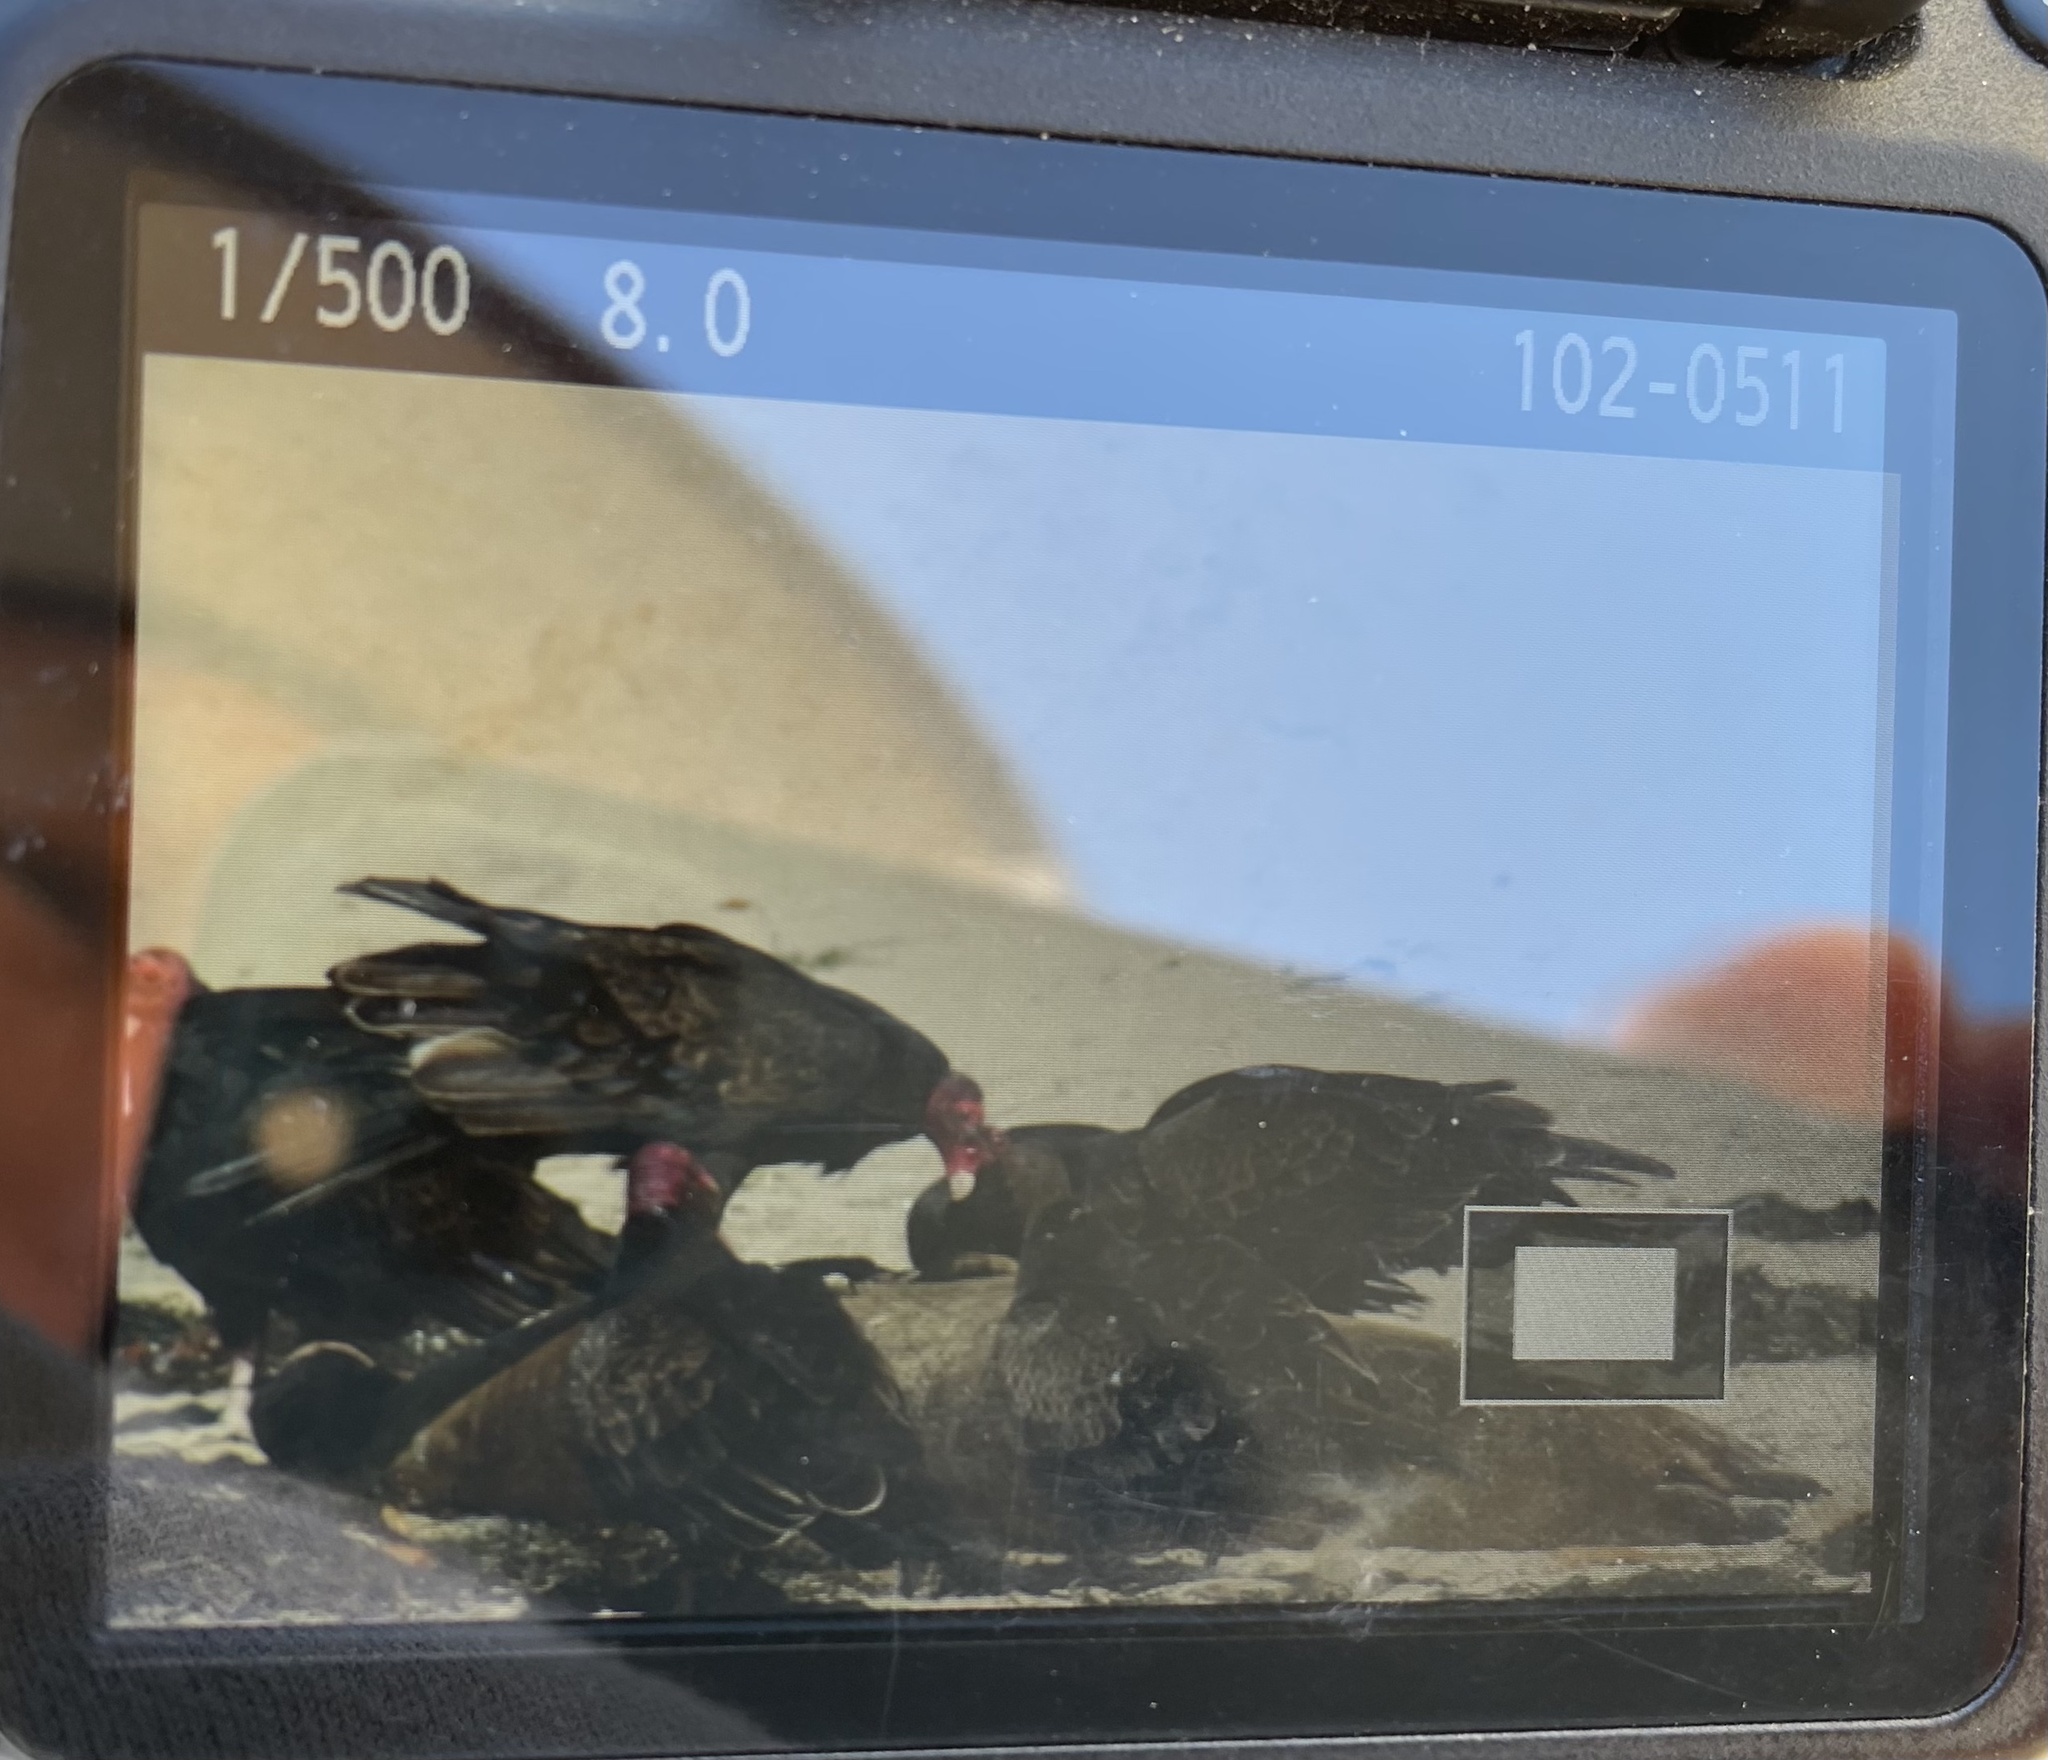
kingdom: Animalia
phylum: Chordata
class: Aves
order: Accipitriformes
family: Cathartidae
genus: Cathartes
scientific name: Cathartes aura
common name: Turkey vulture
